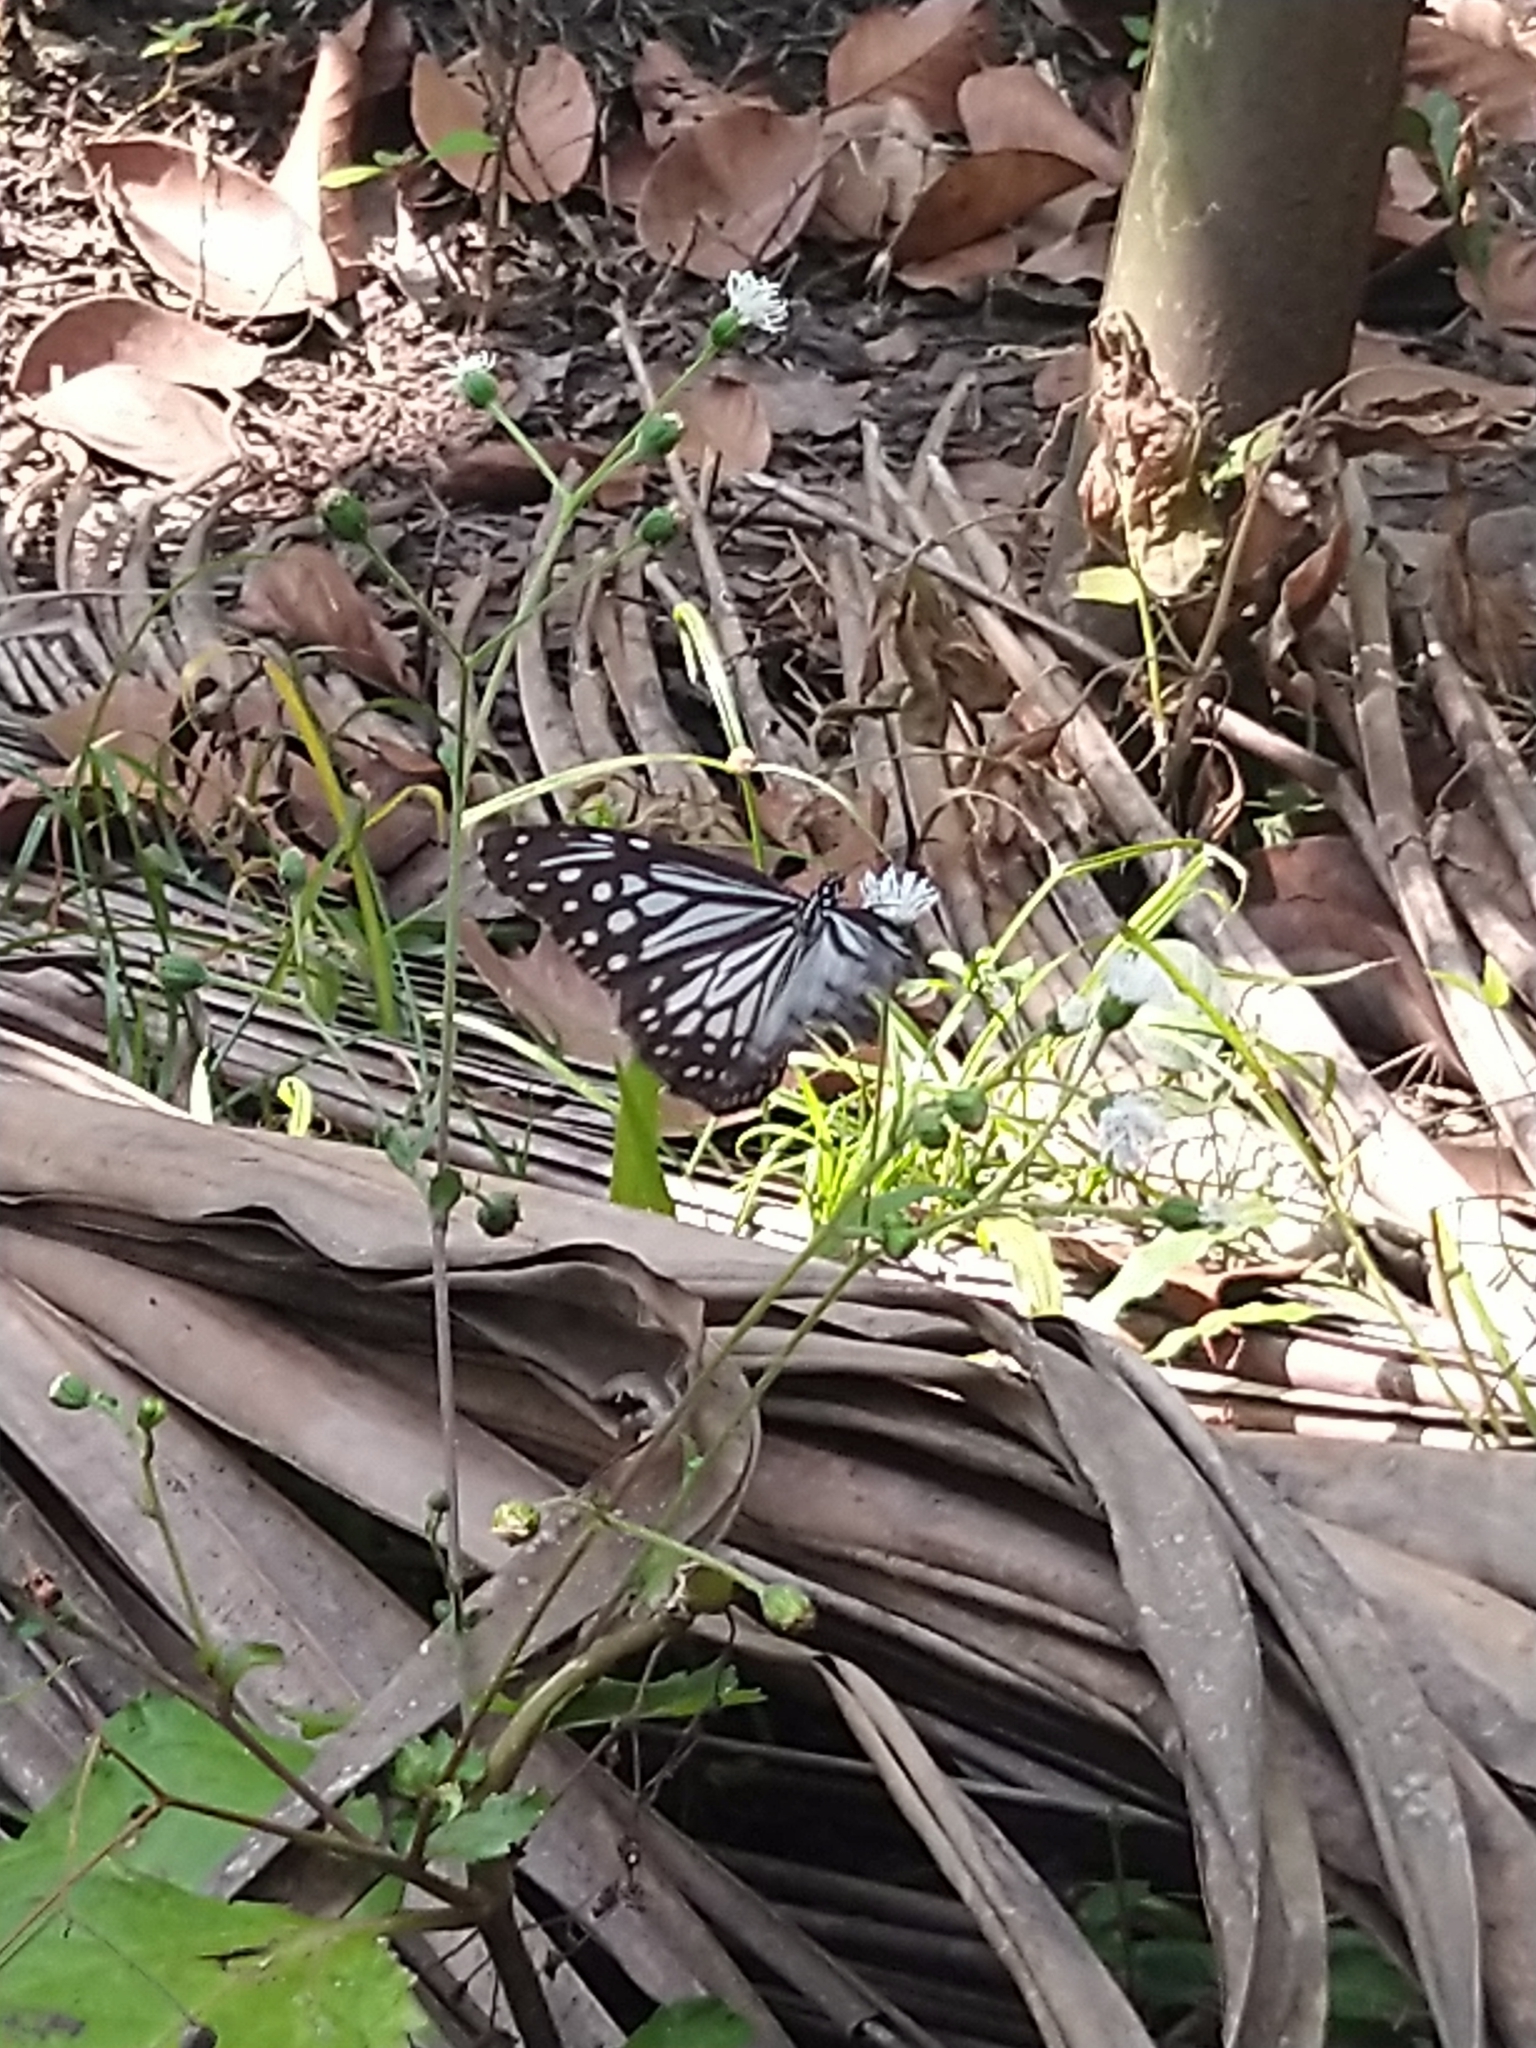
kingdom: Animalia
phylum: Arthropoda
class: Insecta
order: Lepidoptera
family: Nymphalidae
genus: Parantica
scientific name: Parantica aglea
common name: Glassy tiger
